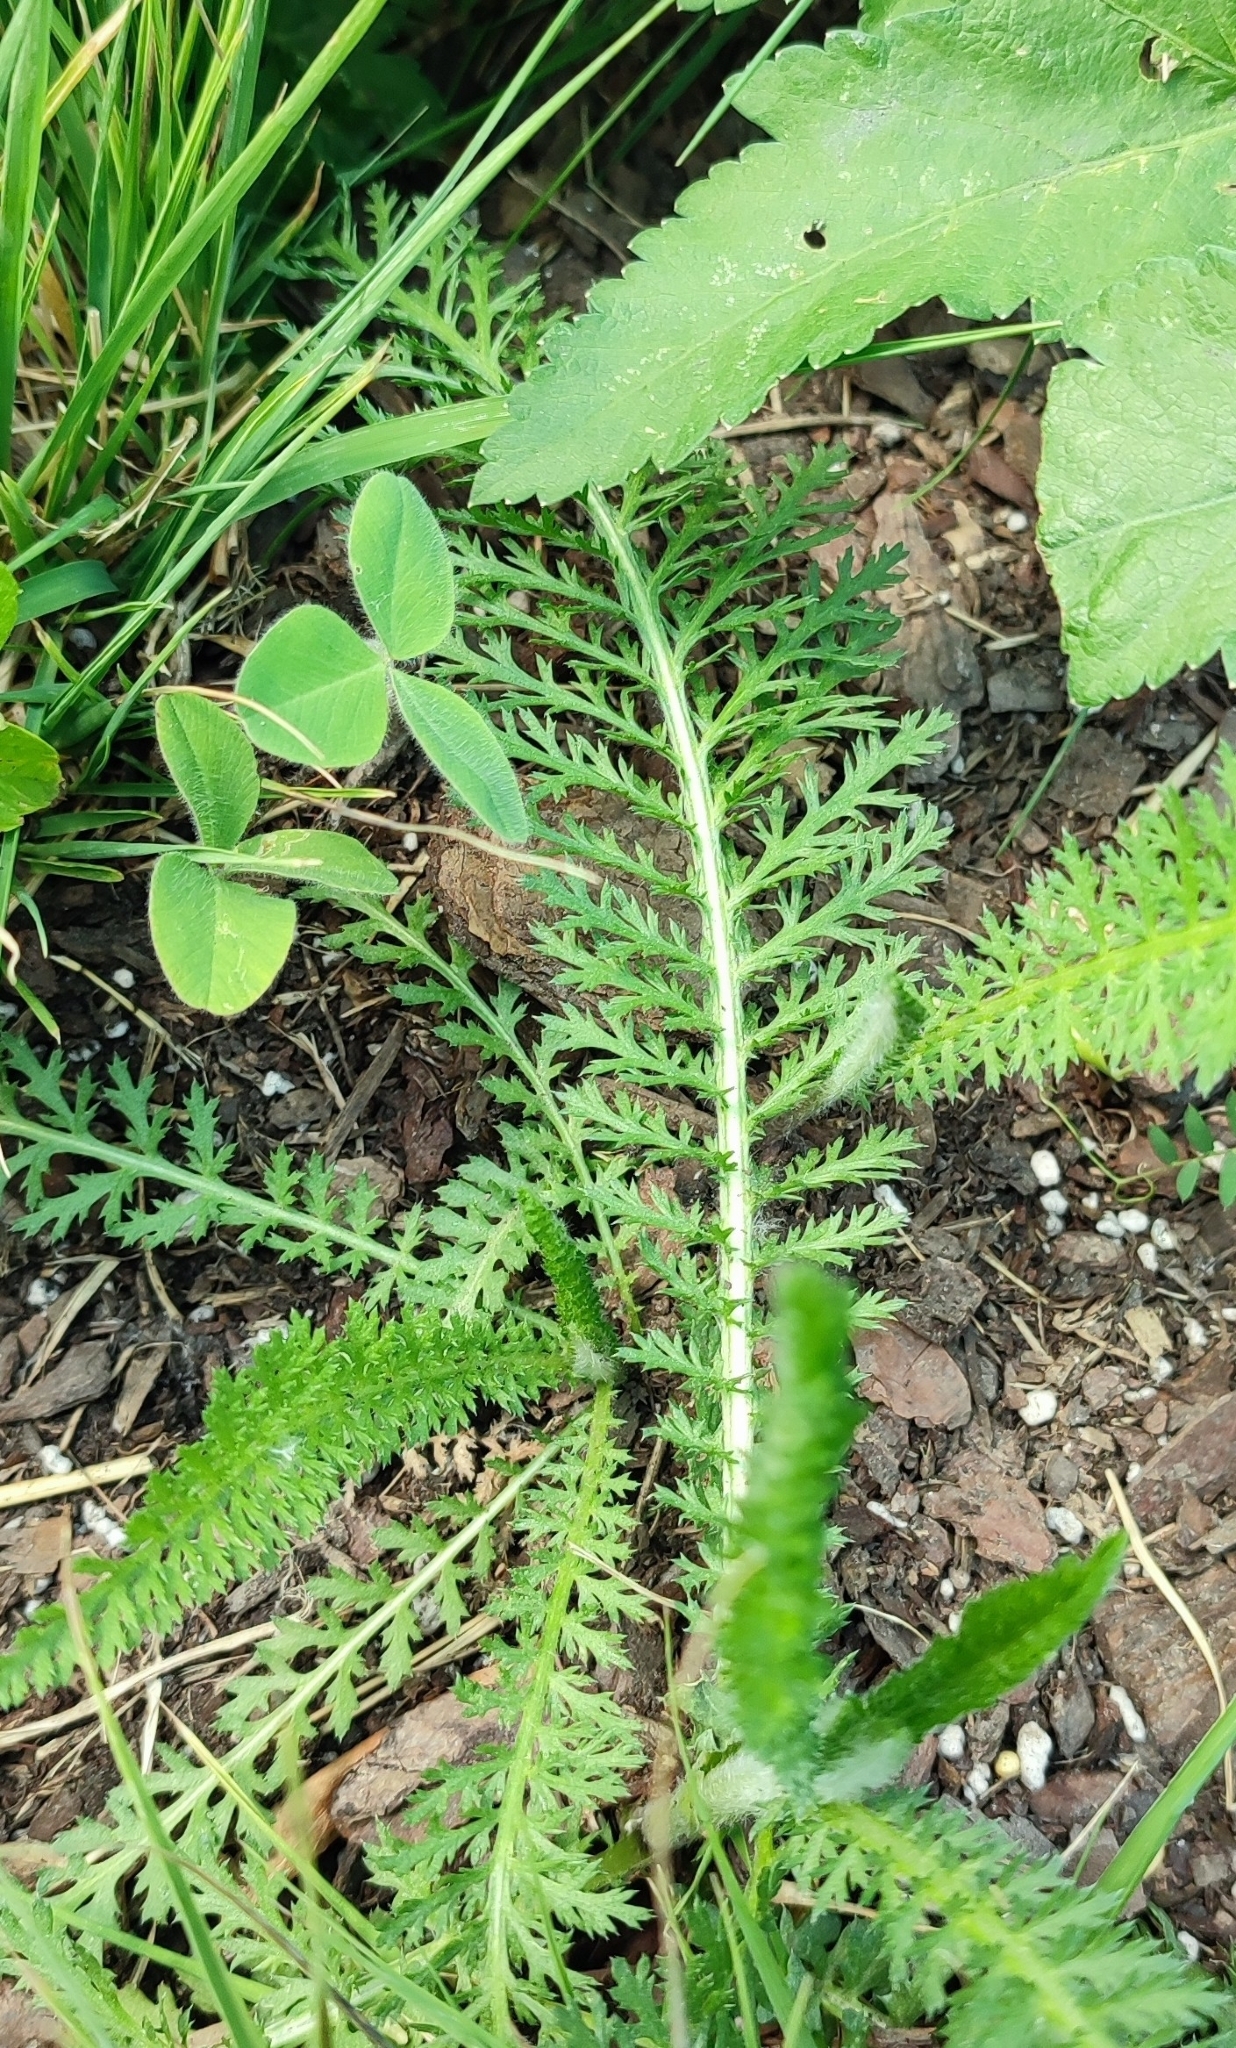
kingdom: Plantae
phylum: Tracheophyta
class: Magnoliopsida
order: Asterales
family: Asteraceae
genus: Achillea
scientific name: Achillea millefolium
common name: Yarrow
